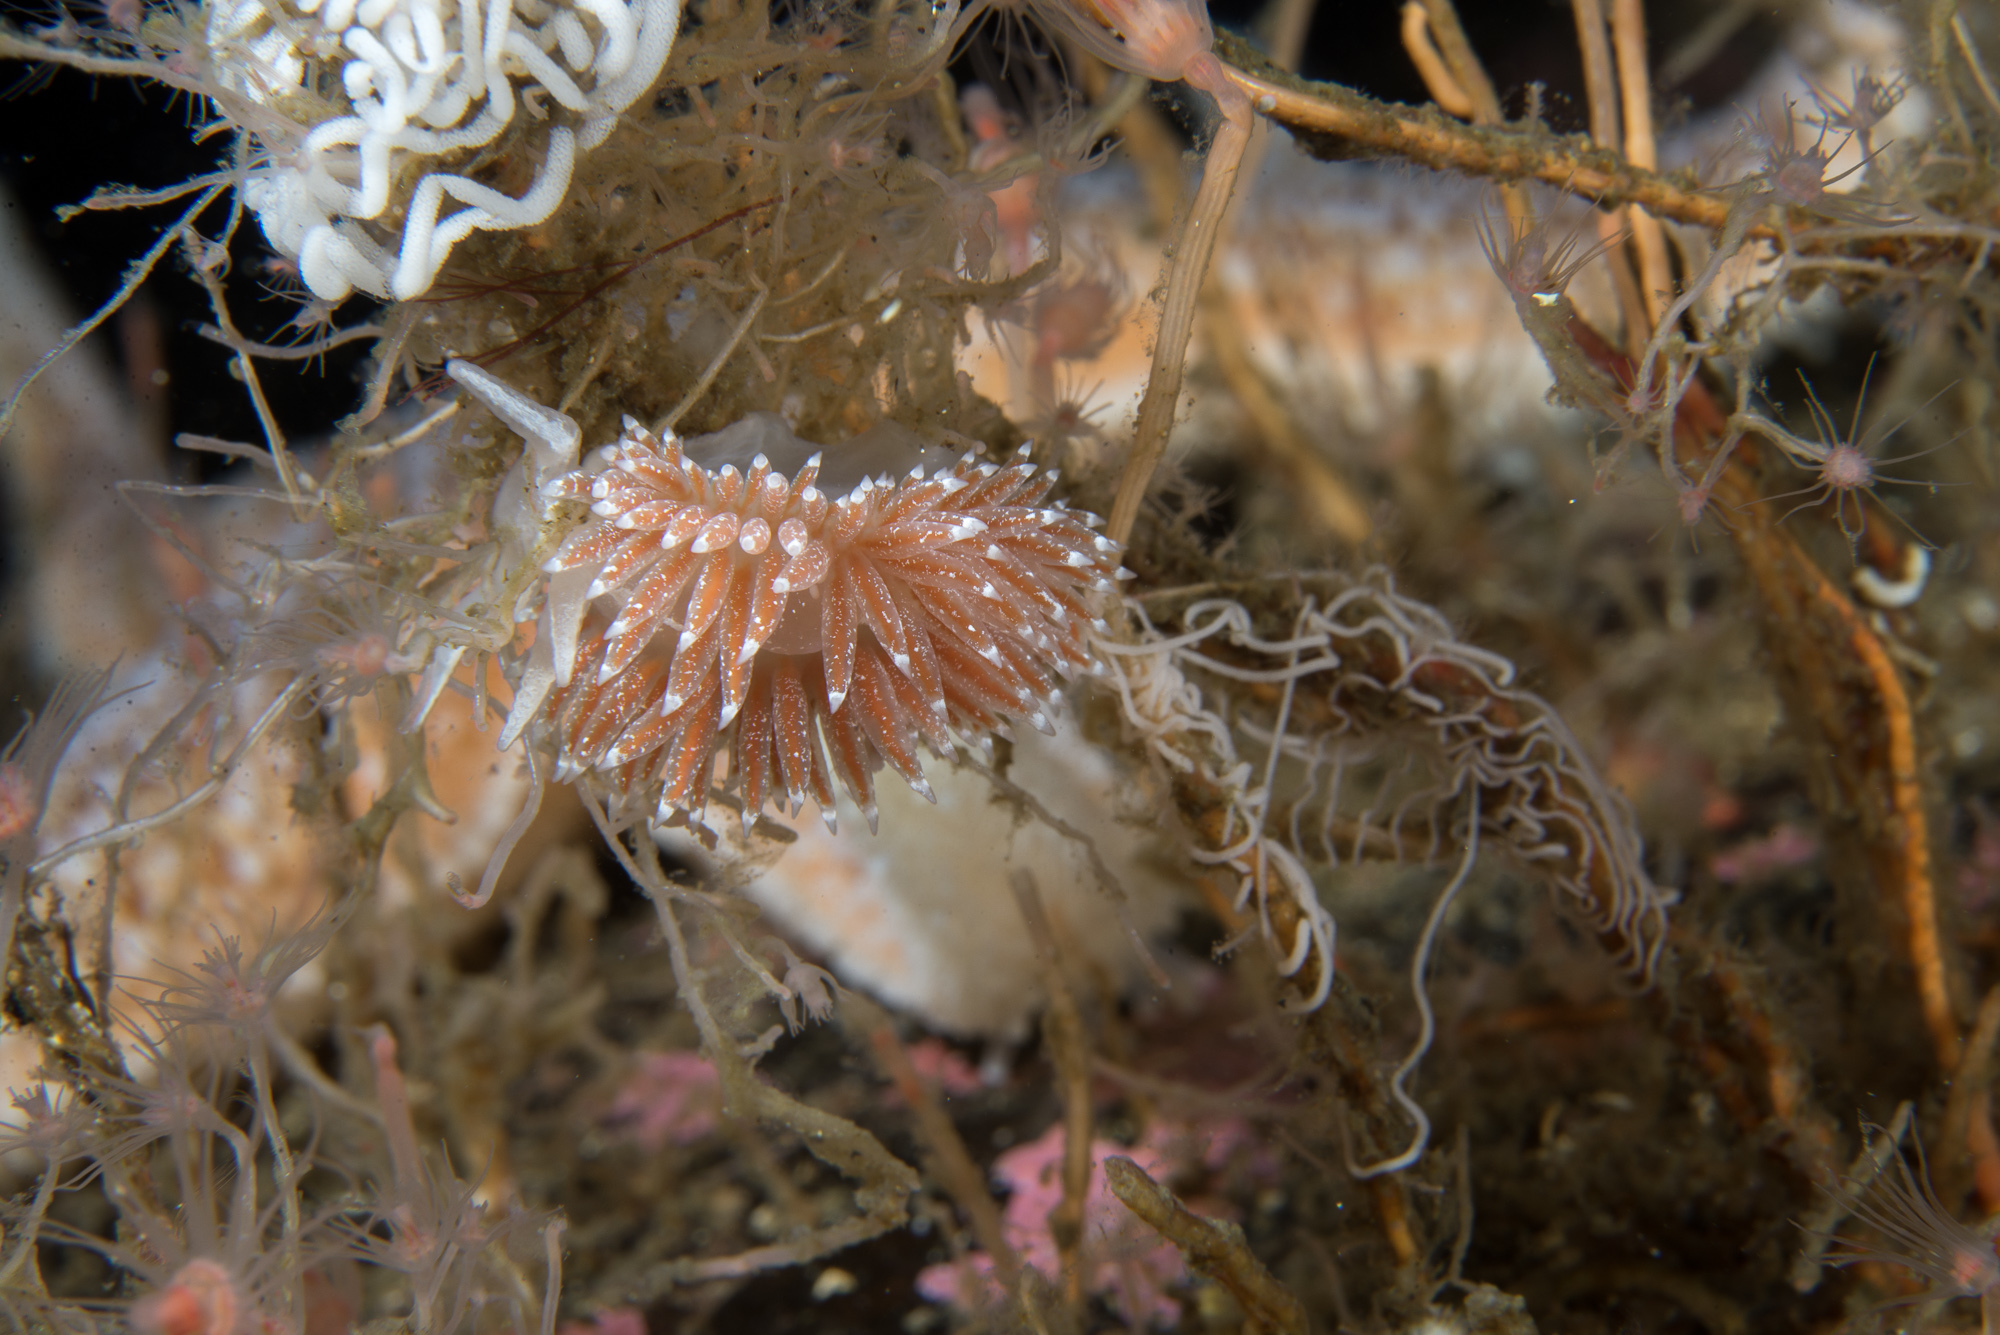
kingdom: Animalia
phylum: Mollusca
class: Gastropoda
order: Nudibranchia
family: Coryphellidae
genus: Coryphella
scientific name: Coryphella orjani
